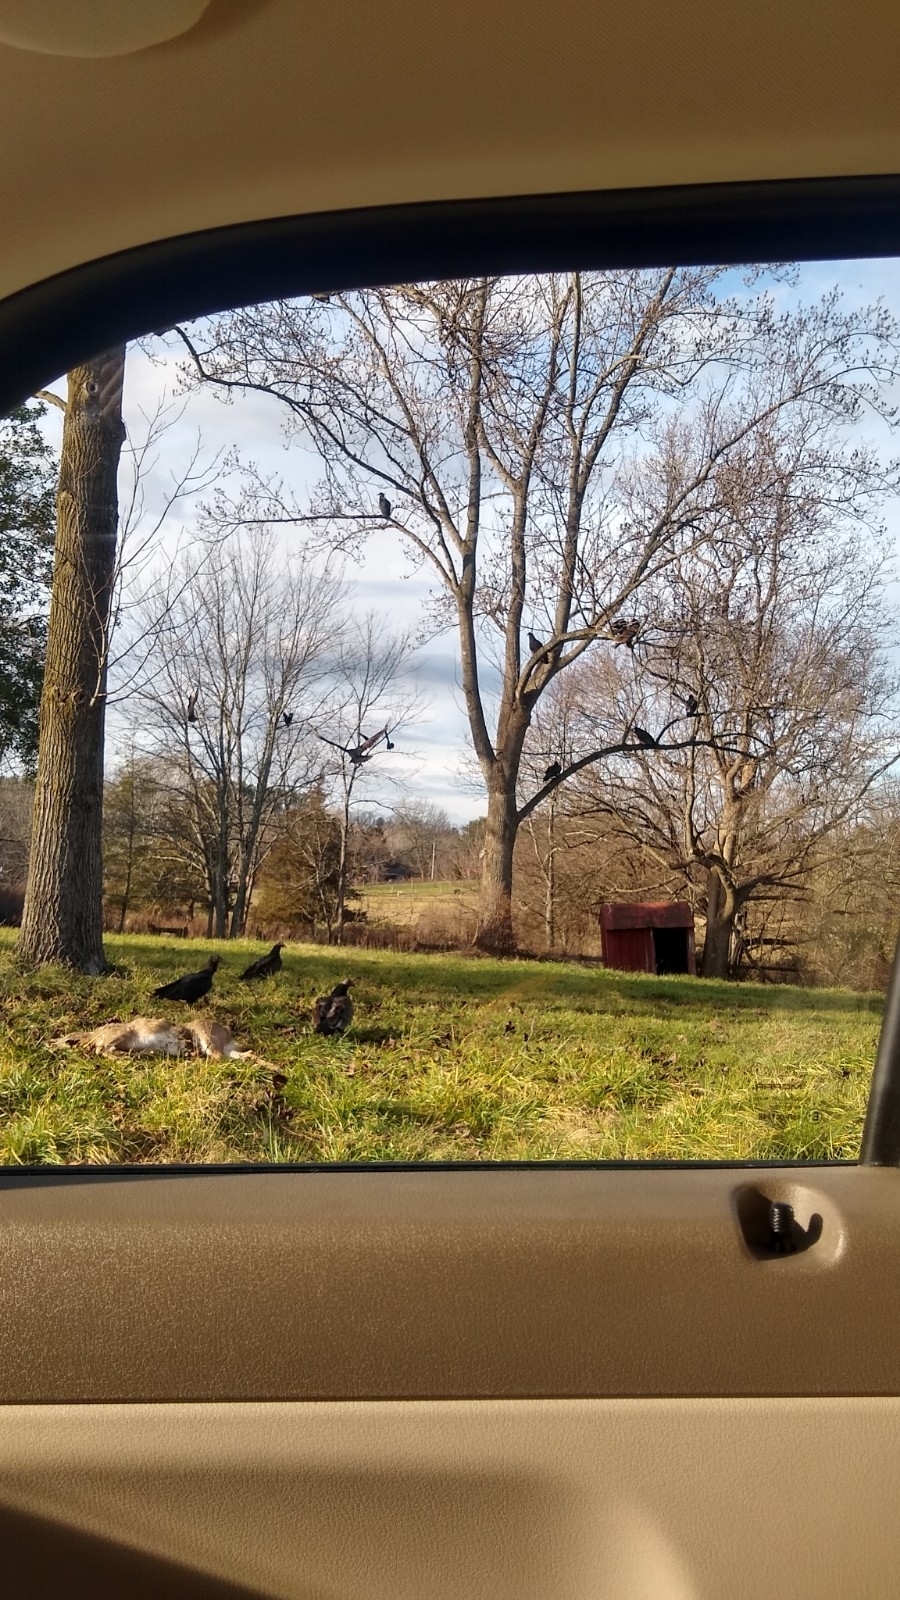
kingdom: Animalia
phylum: Chordata
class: Aves
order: Accipitriformes
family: Cathartidae
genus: Cathartes
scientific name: Cathartes aura
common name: Turkey vulture
